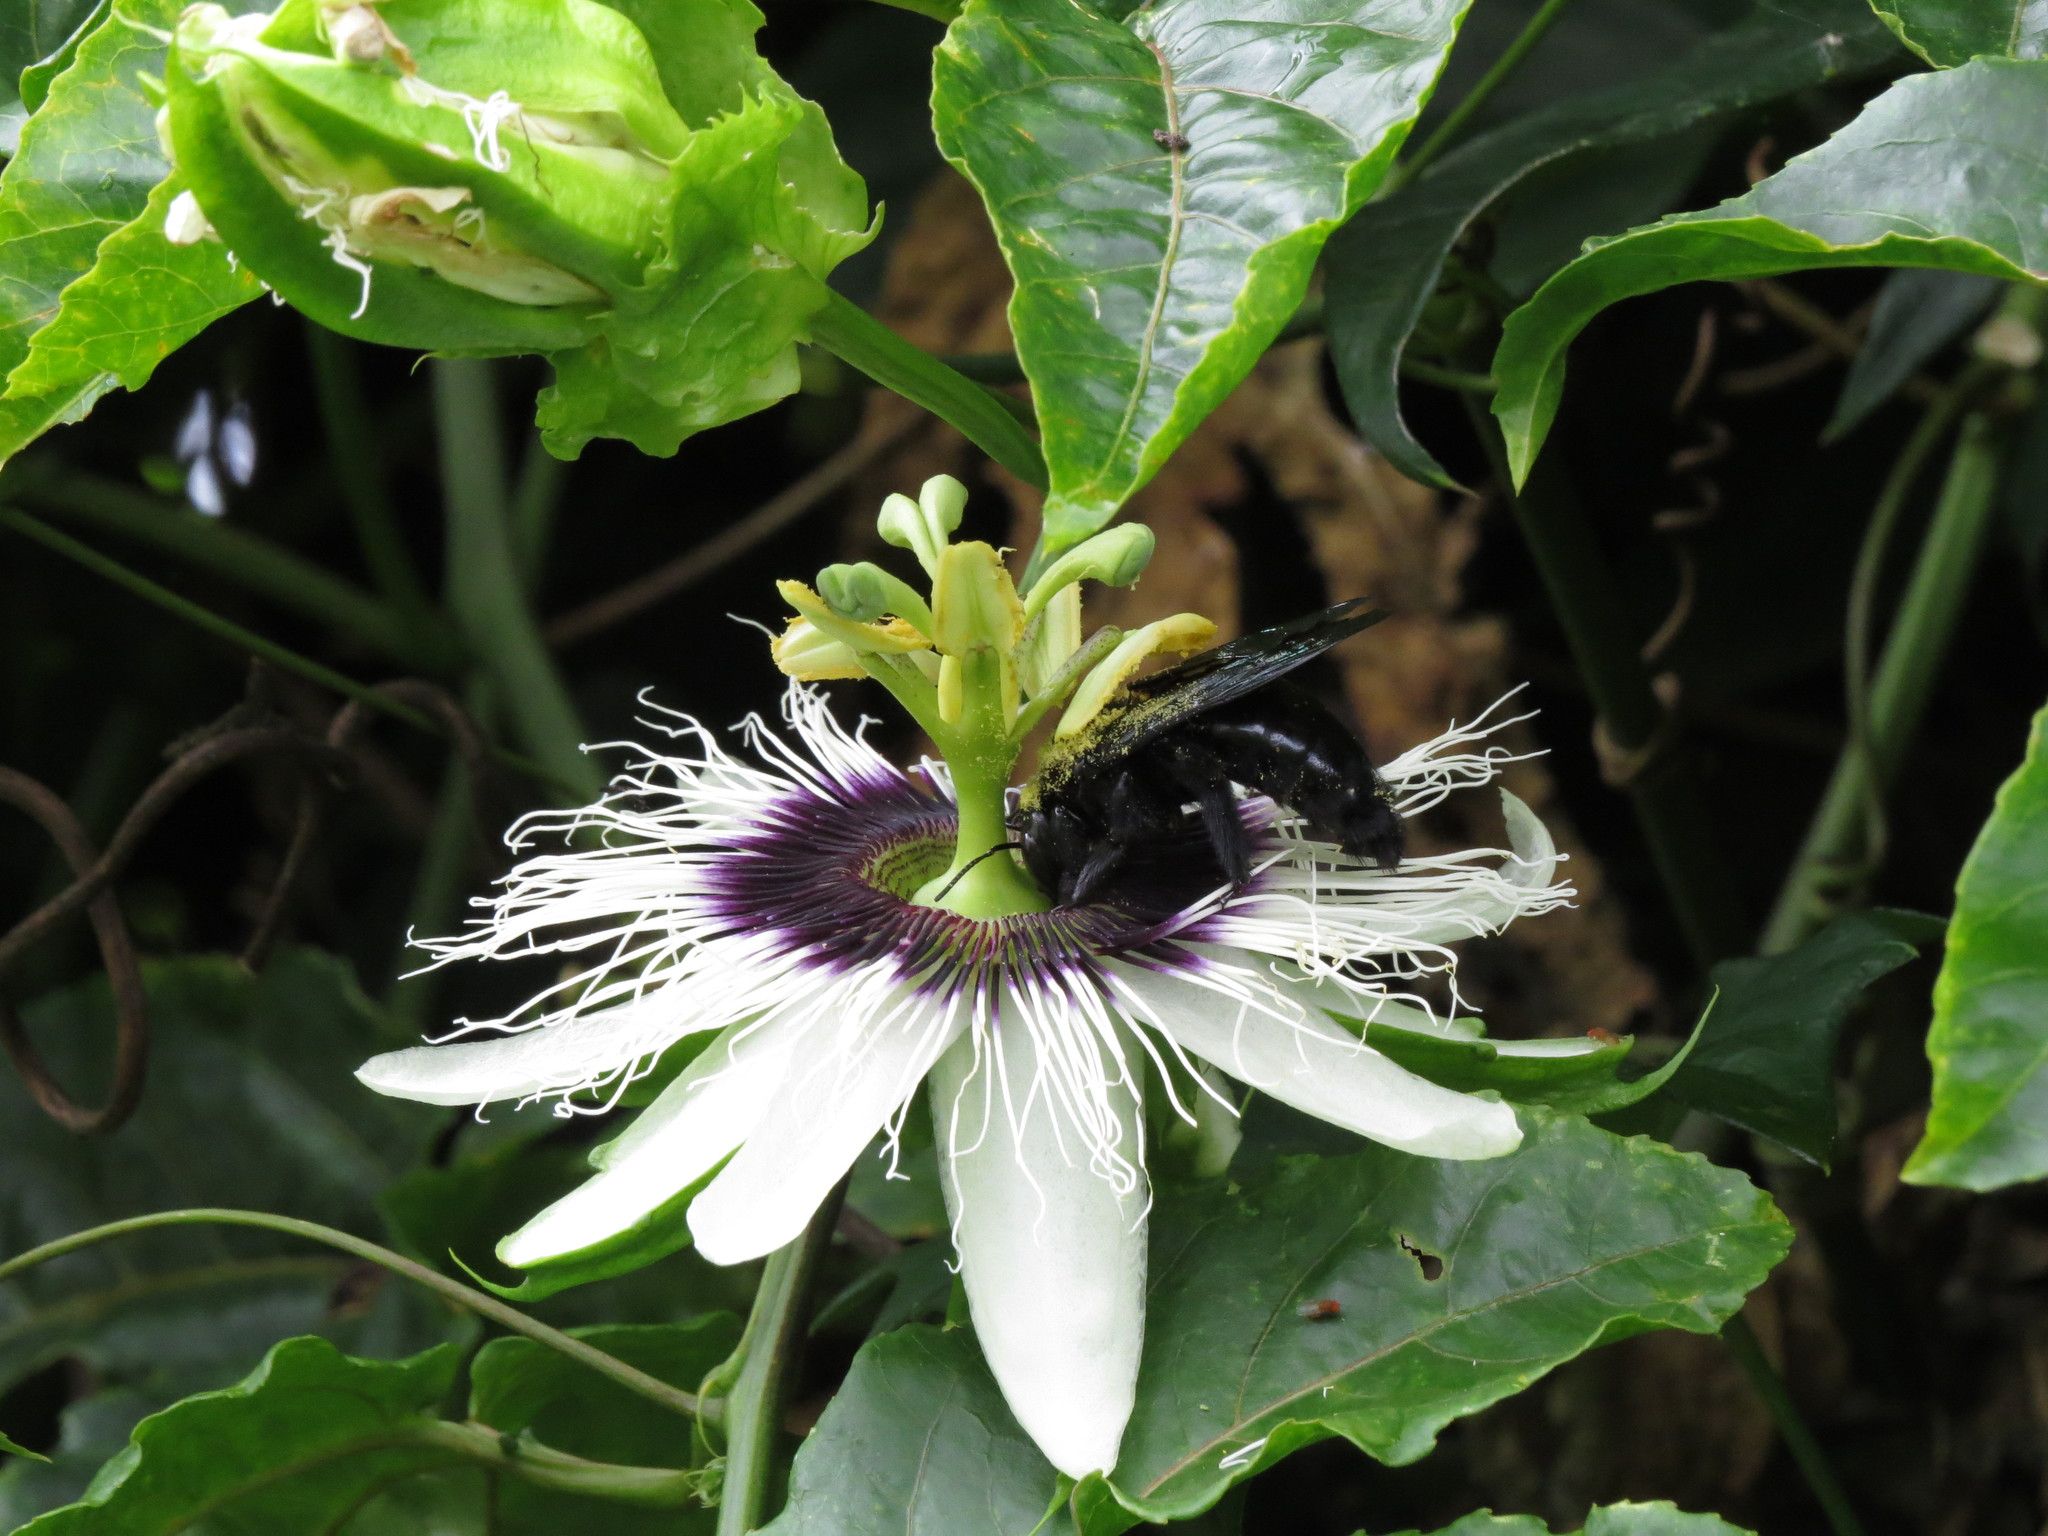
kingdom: Animalia
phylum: Arthropoda
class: Insecta
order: Hymenoptera
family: Apidae
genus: Xylocopa
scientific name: Xylocopa frontalis
